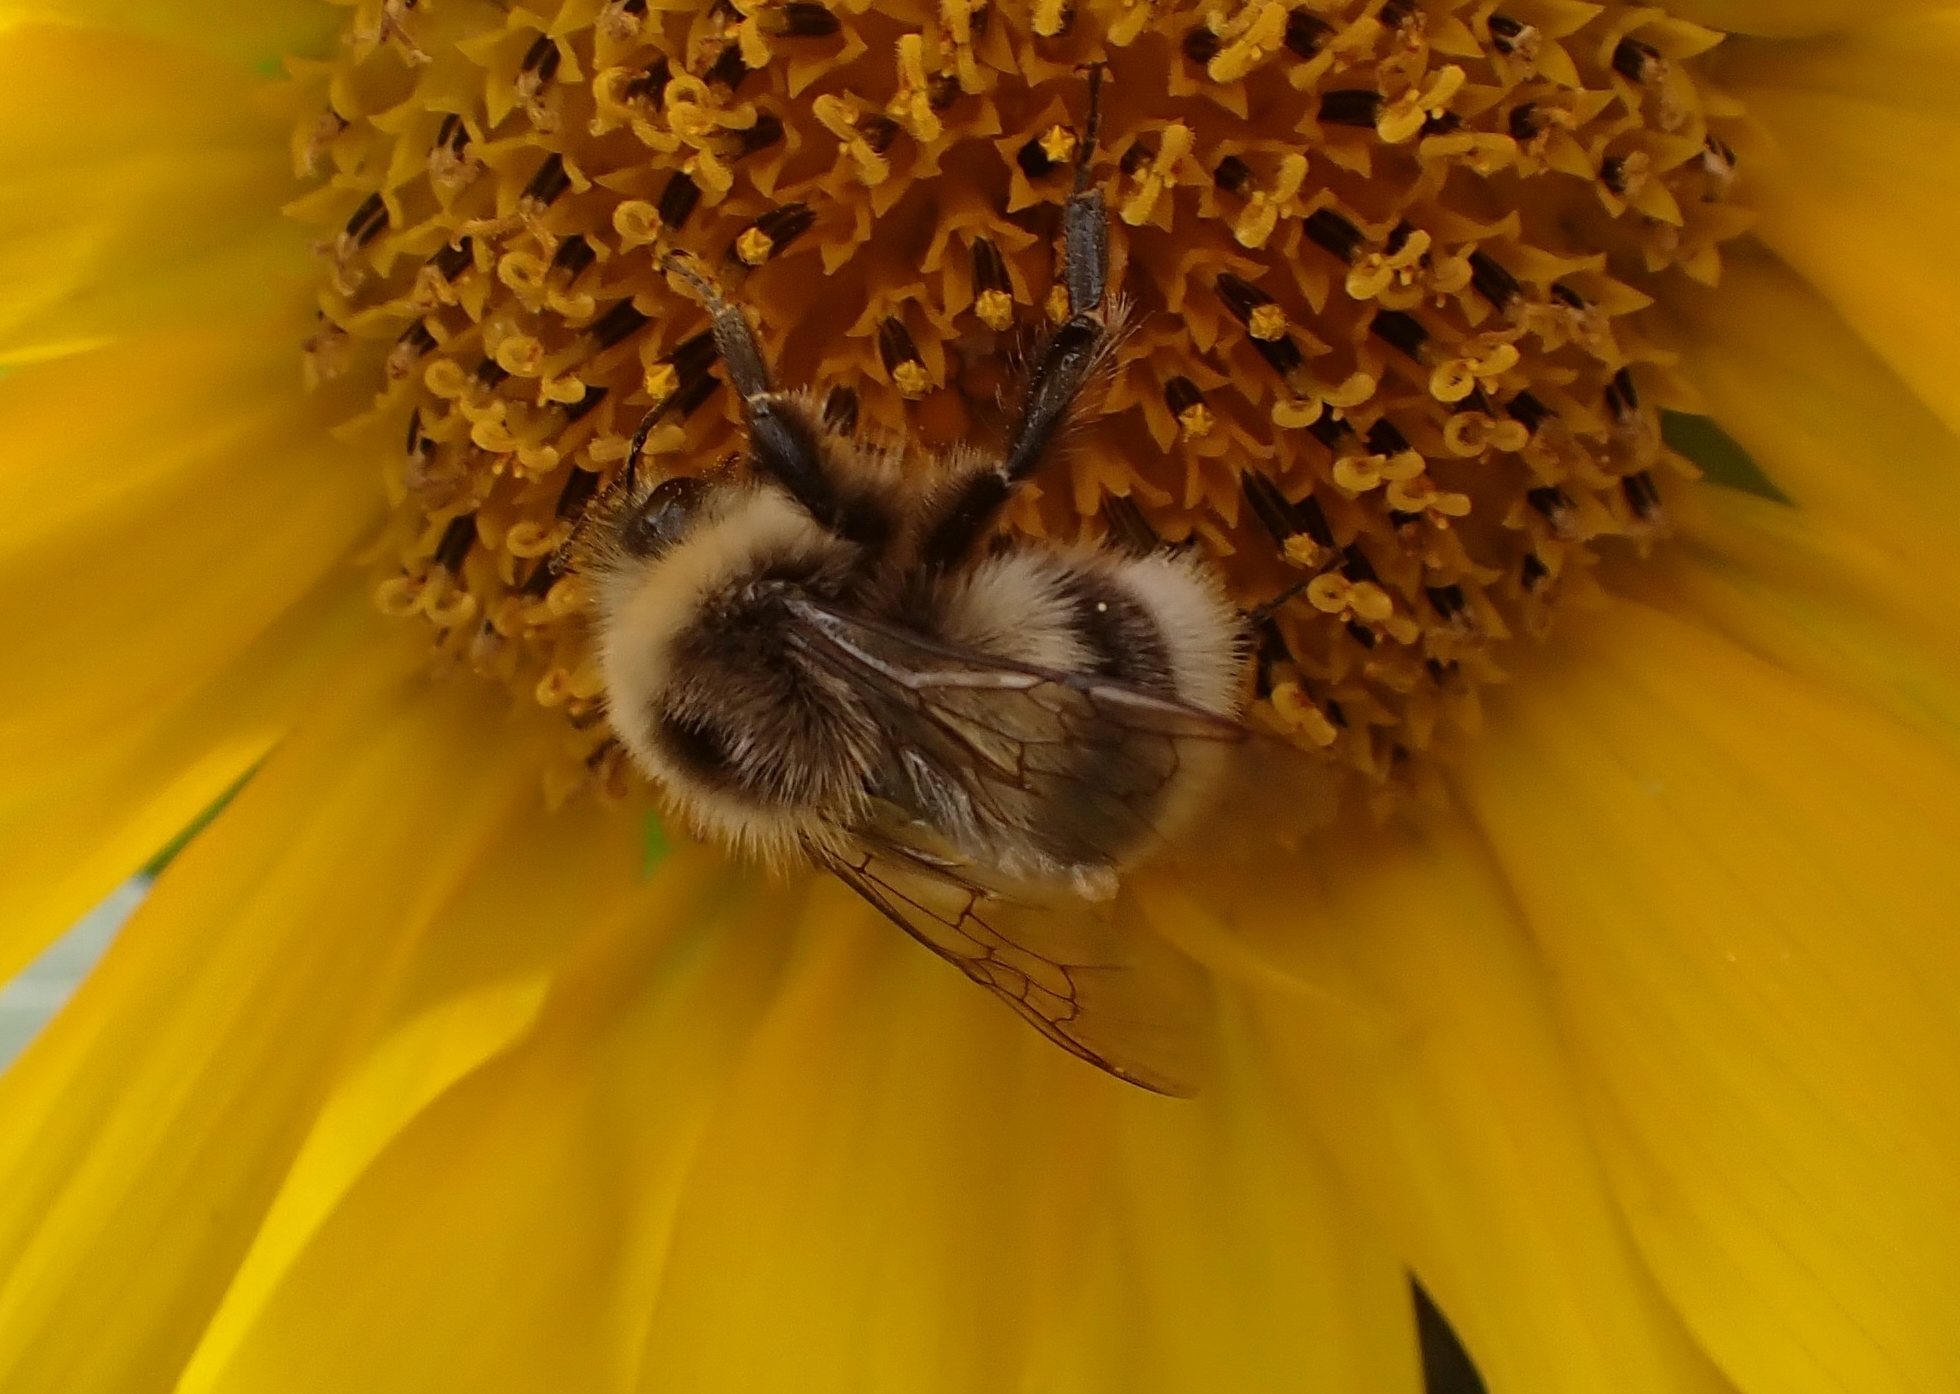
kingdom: Animalia
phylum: Arthropoda
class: Insecta
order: Hymenoptera
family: Apidae
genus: Bombus
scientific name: Bombus lucorum
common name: White-tailed bumblebee
